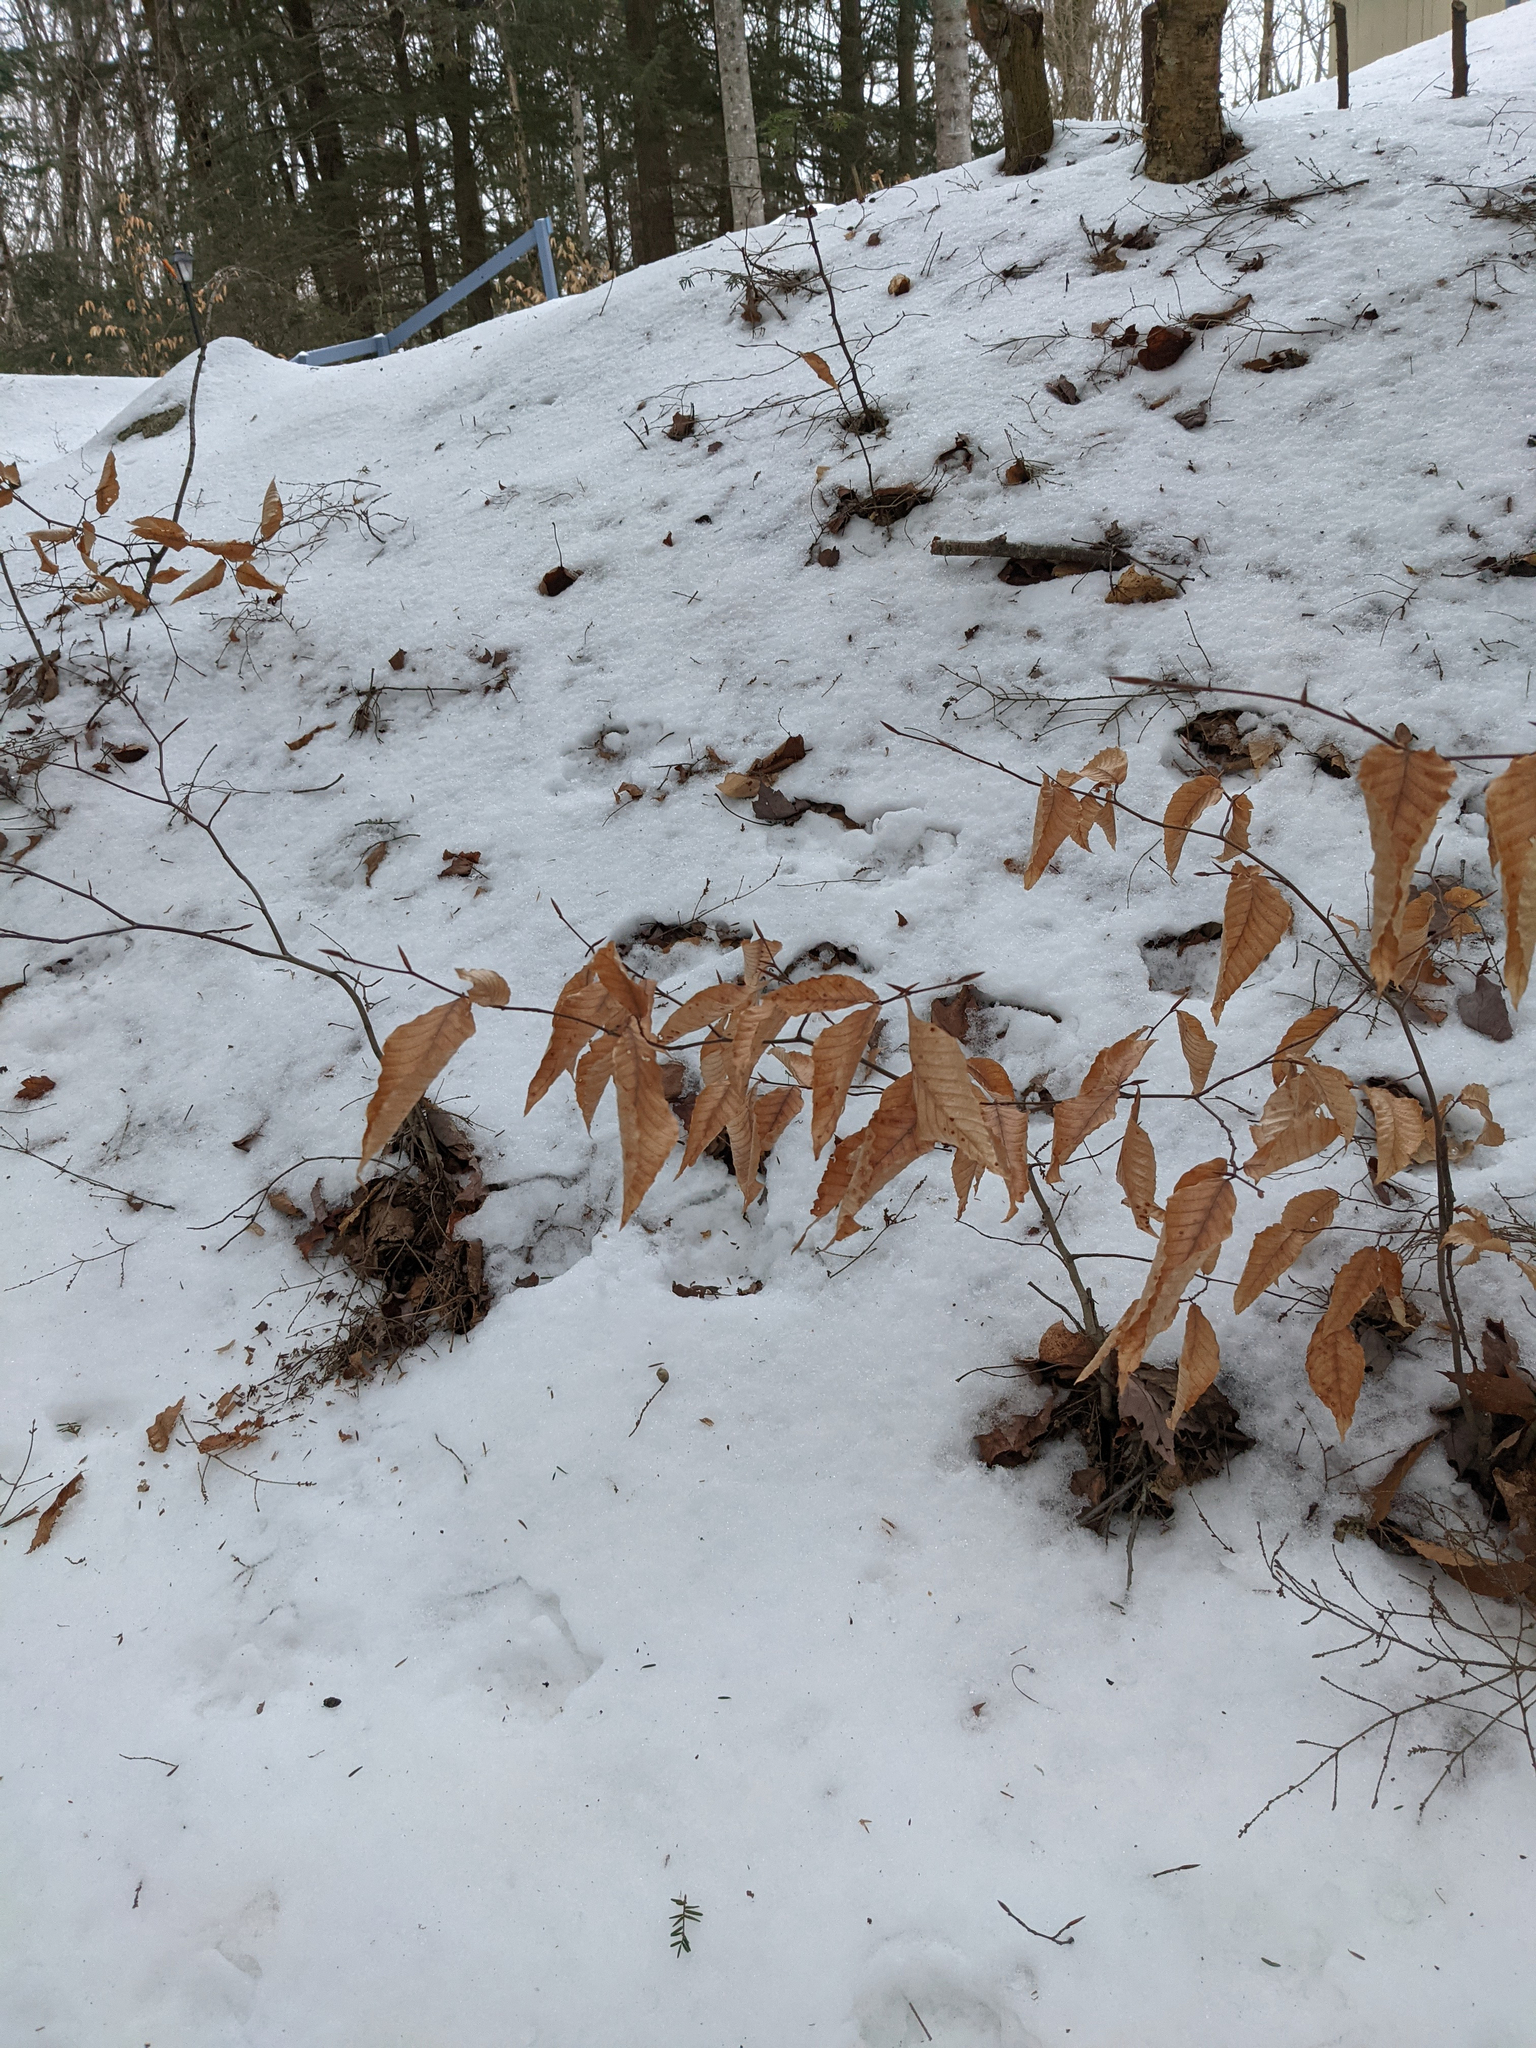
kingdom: Plantae
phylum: Tracheophyta
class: Magnoliopsida
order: Fagales
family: Fagaceae
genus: Fagus
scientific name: Fagus grandifolia
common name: American beech
